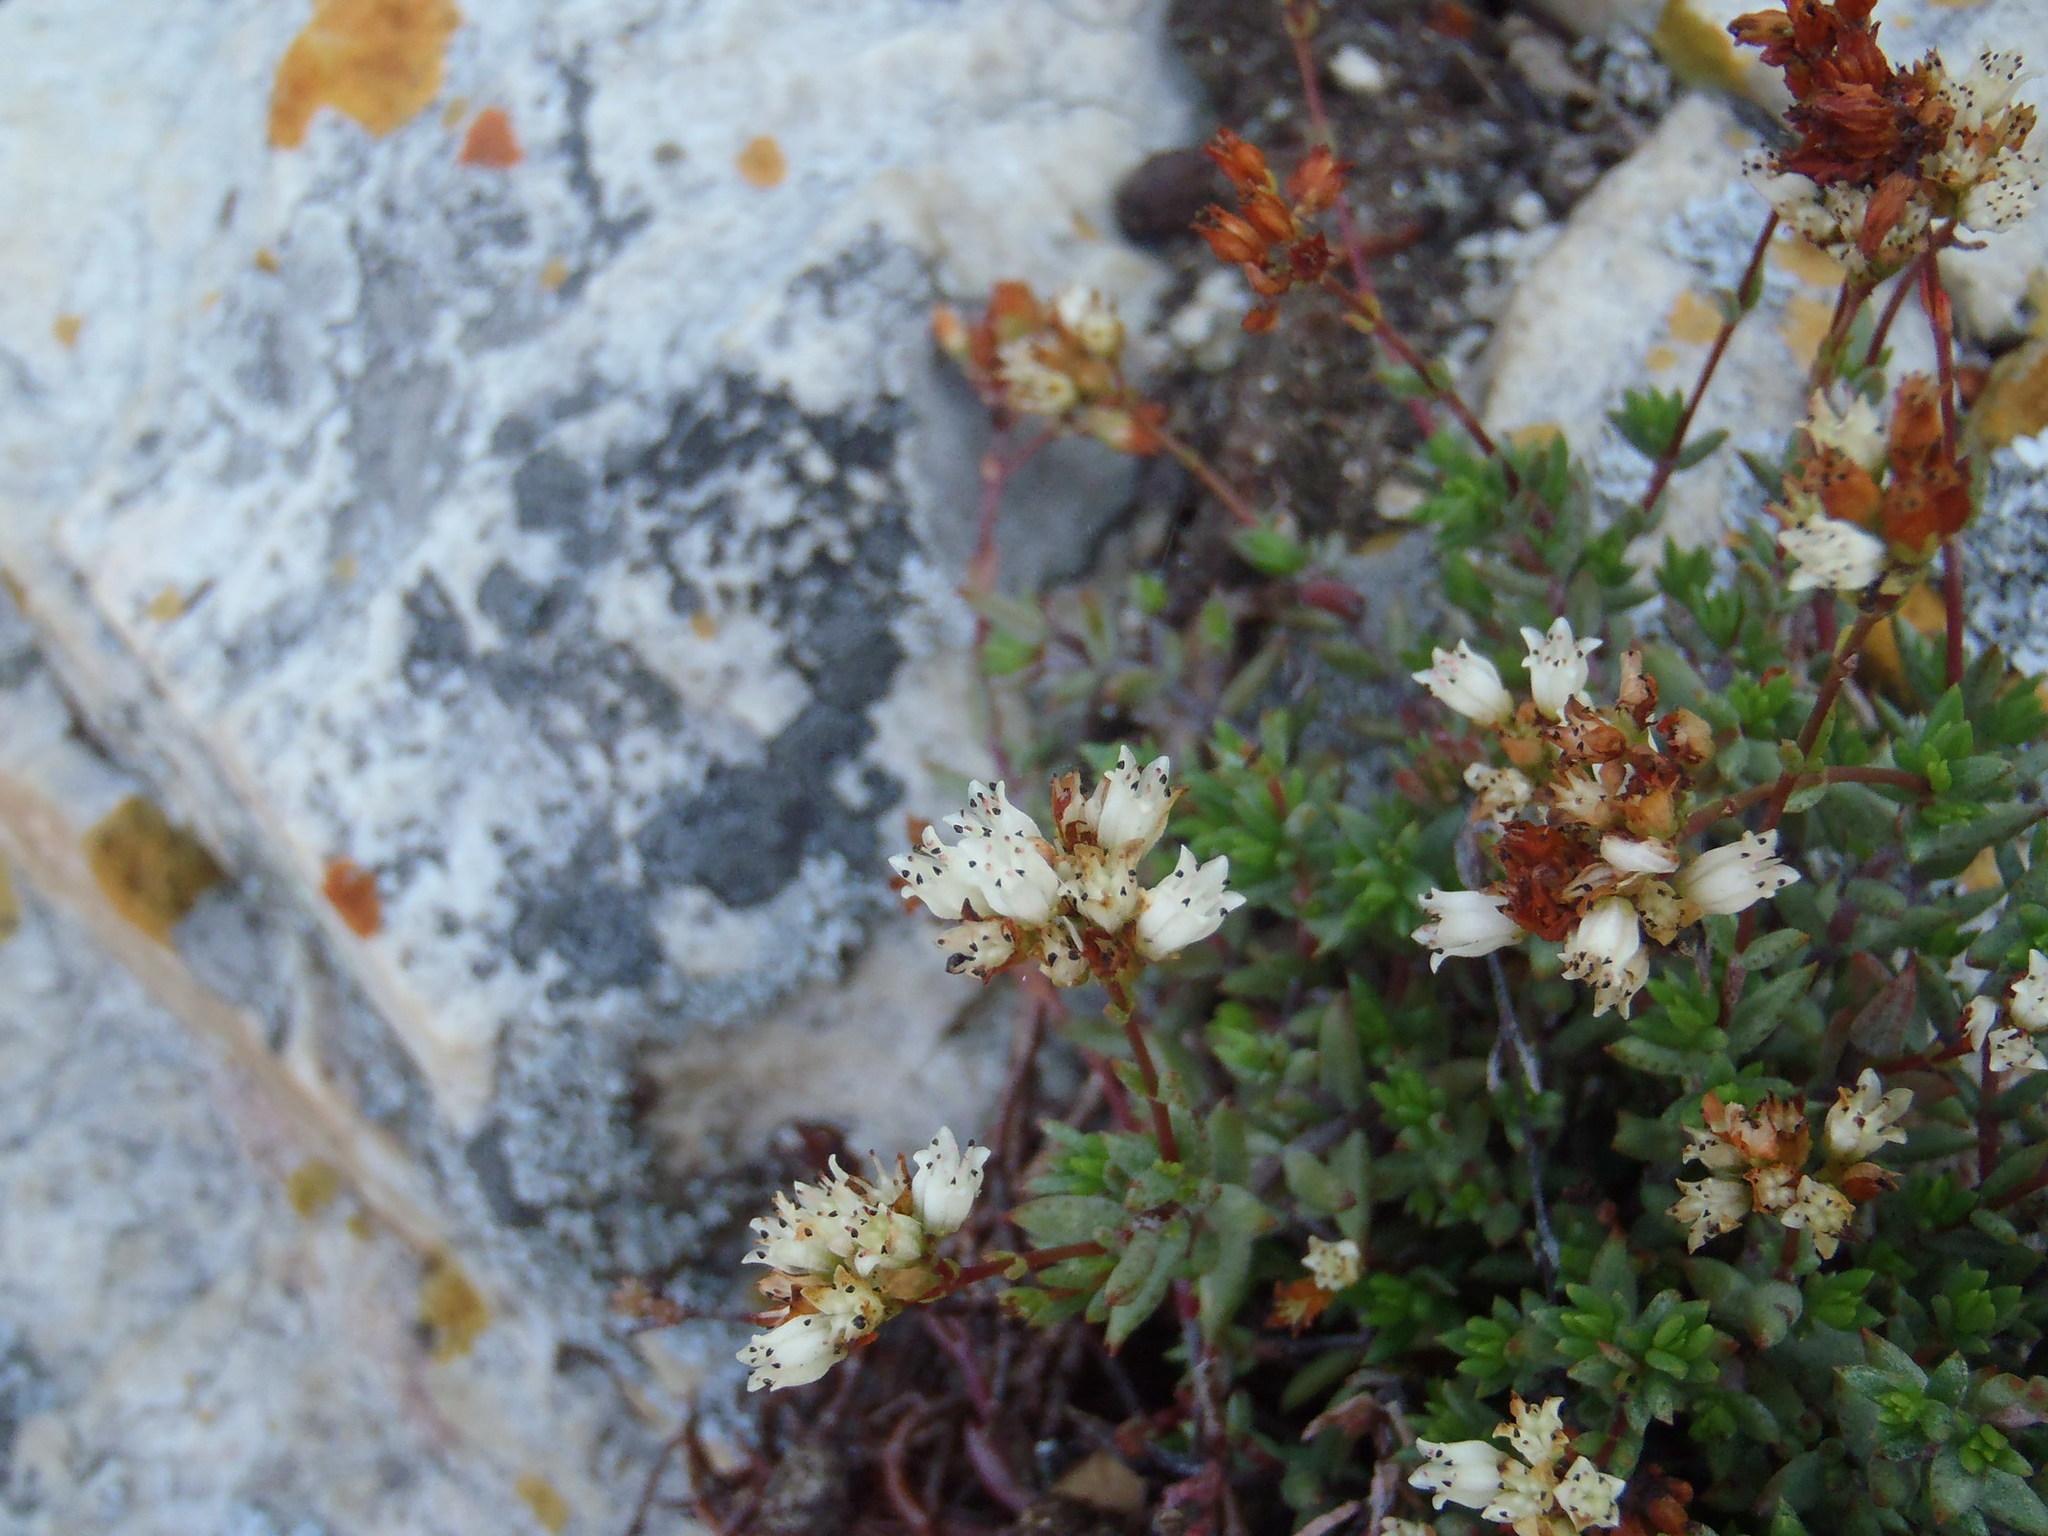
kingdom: Plantae
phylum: Tracheophyta
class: Magnoliopsida
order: Saxifragales
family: Crassulaceae
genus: Crassula
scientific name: Crassula biplanata
